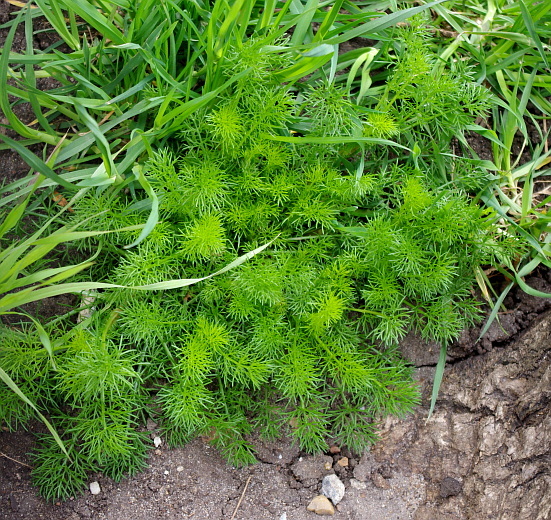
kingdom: Plantae
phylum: Tracheophyta
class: Magnoliopsida
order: Asterales
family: Asteraceae
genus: Tripleurospermum
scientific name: Tripleurospermum inodorum
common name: Scentless mayweed
